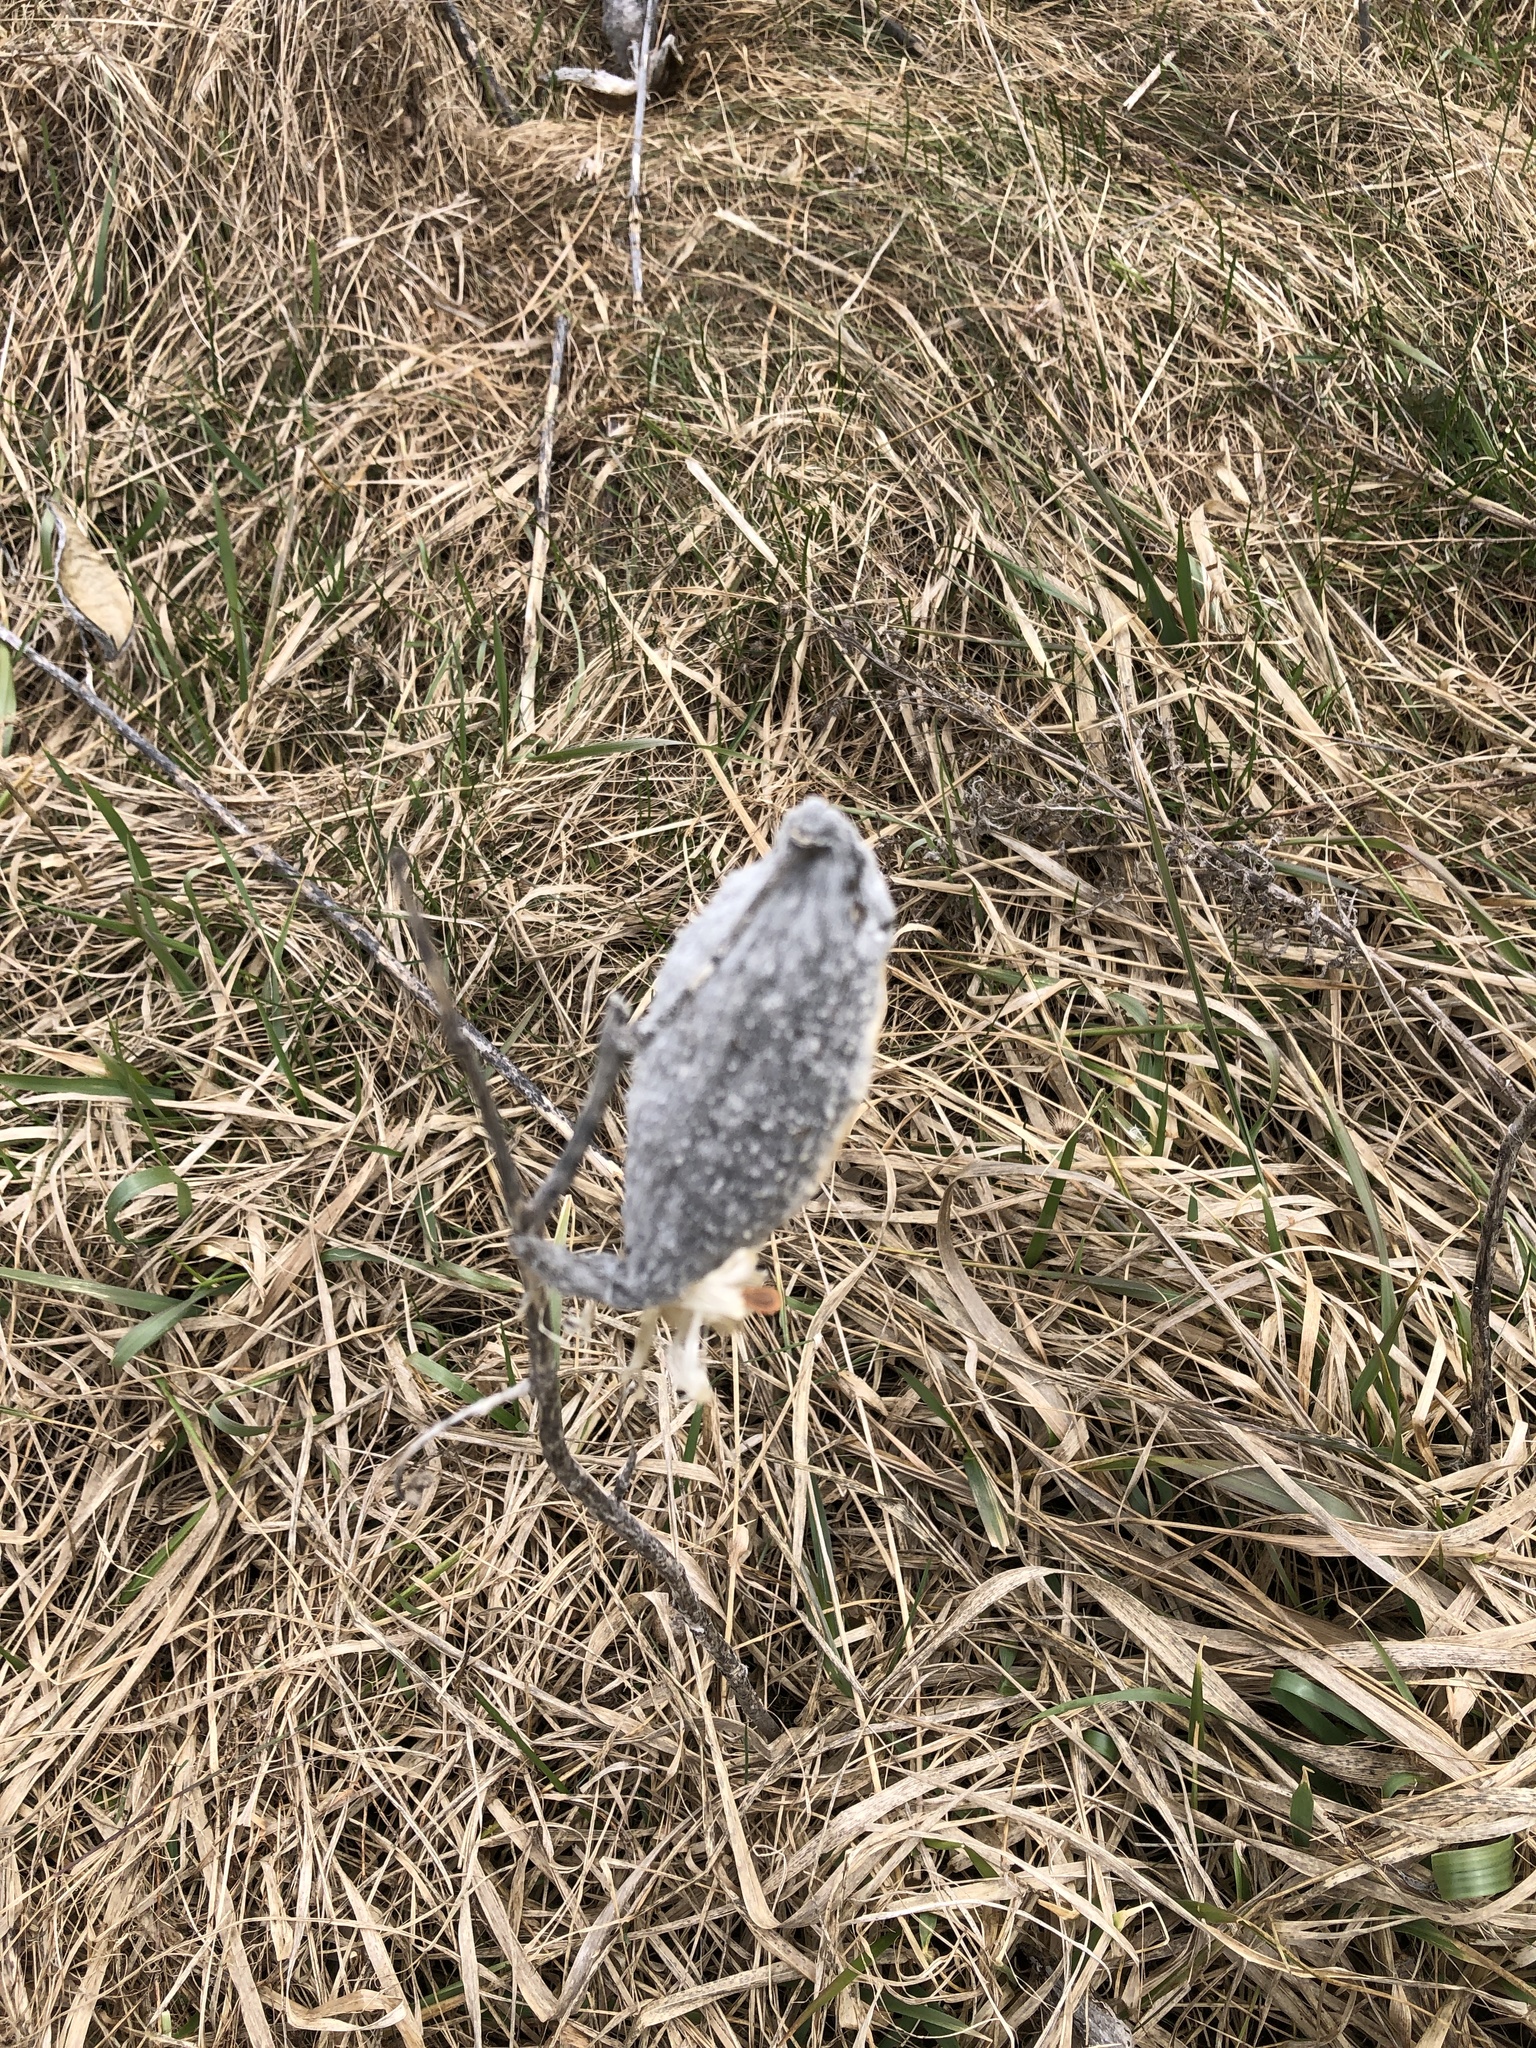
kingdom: Plantae
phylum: Tracheophyta
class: Magnoliopsida
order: Gentianales
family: Apocynaceae
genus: Asclepias
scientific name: Asclepias syriaca
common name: Common milkweed
